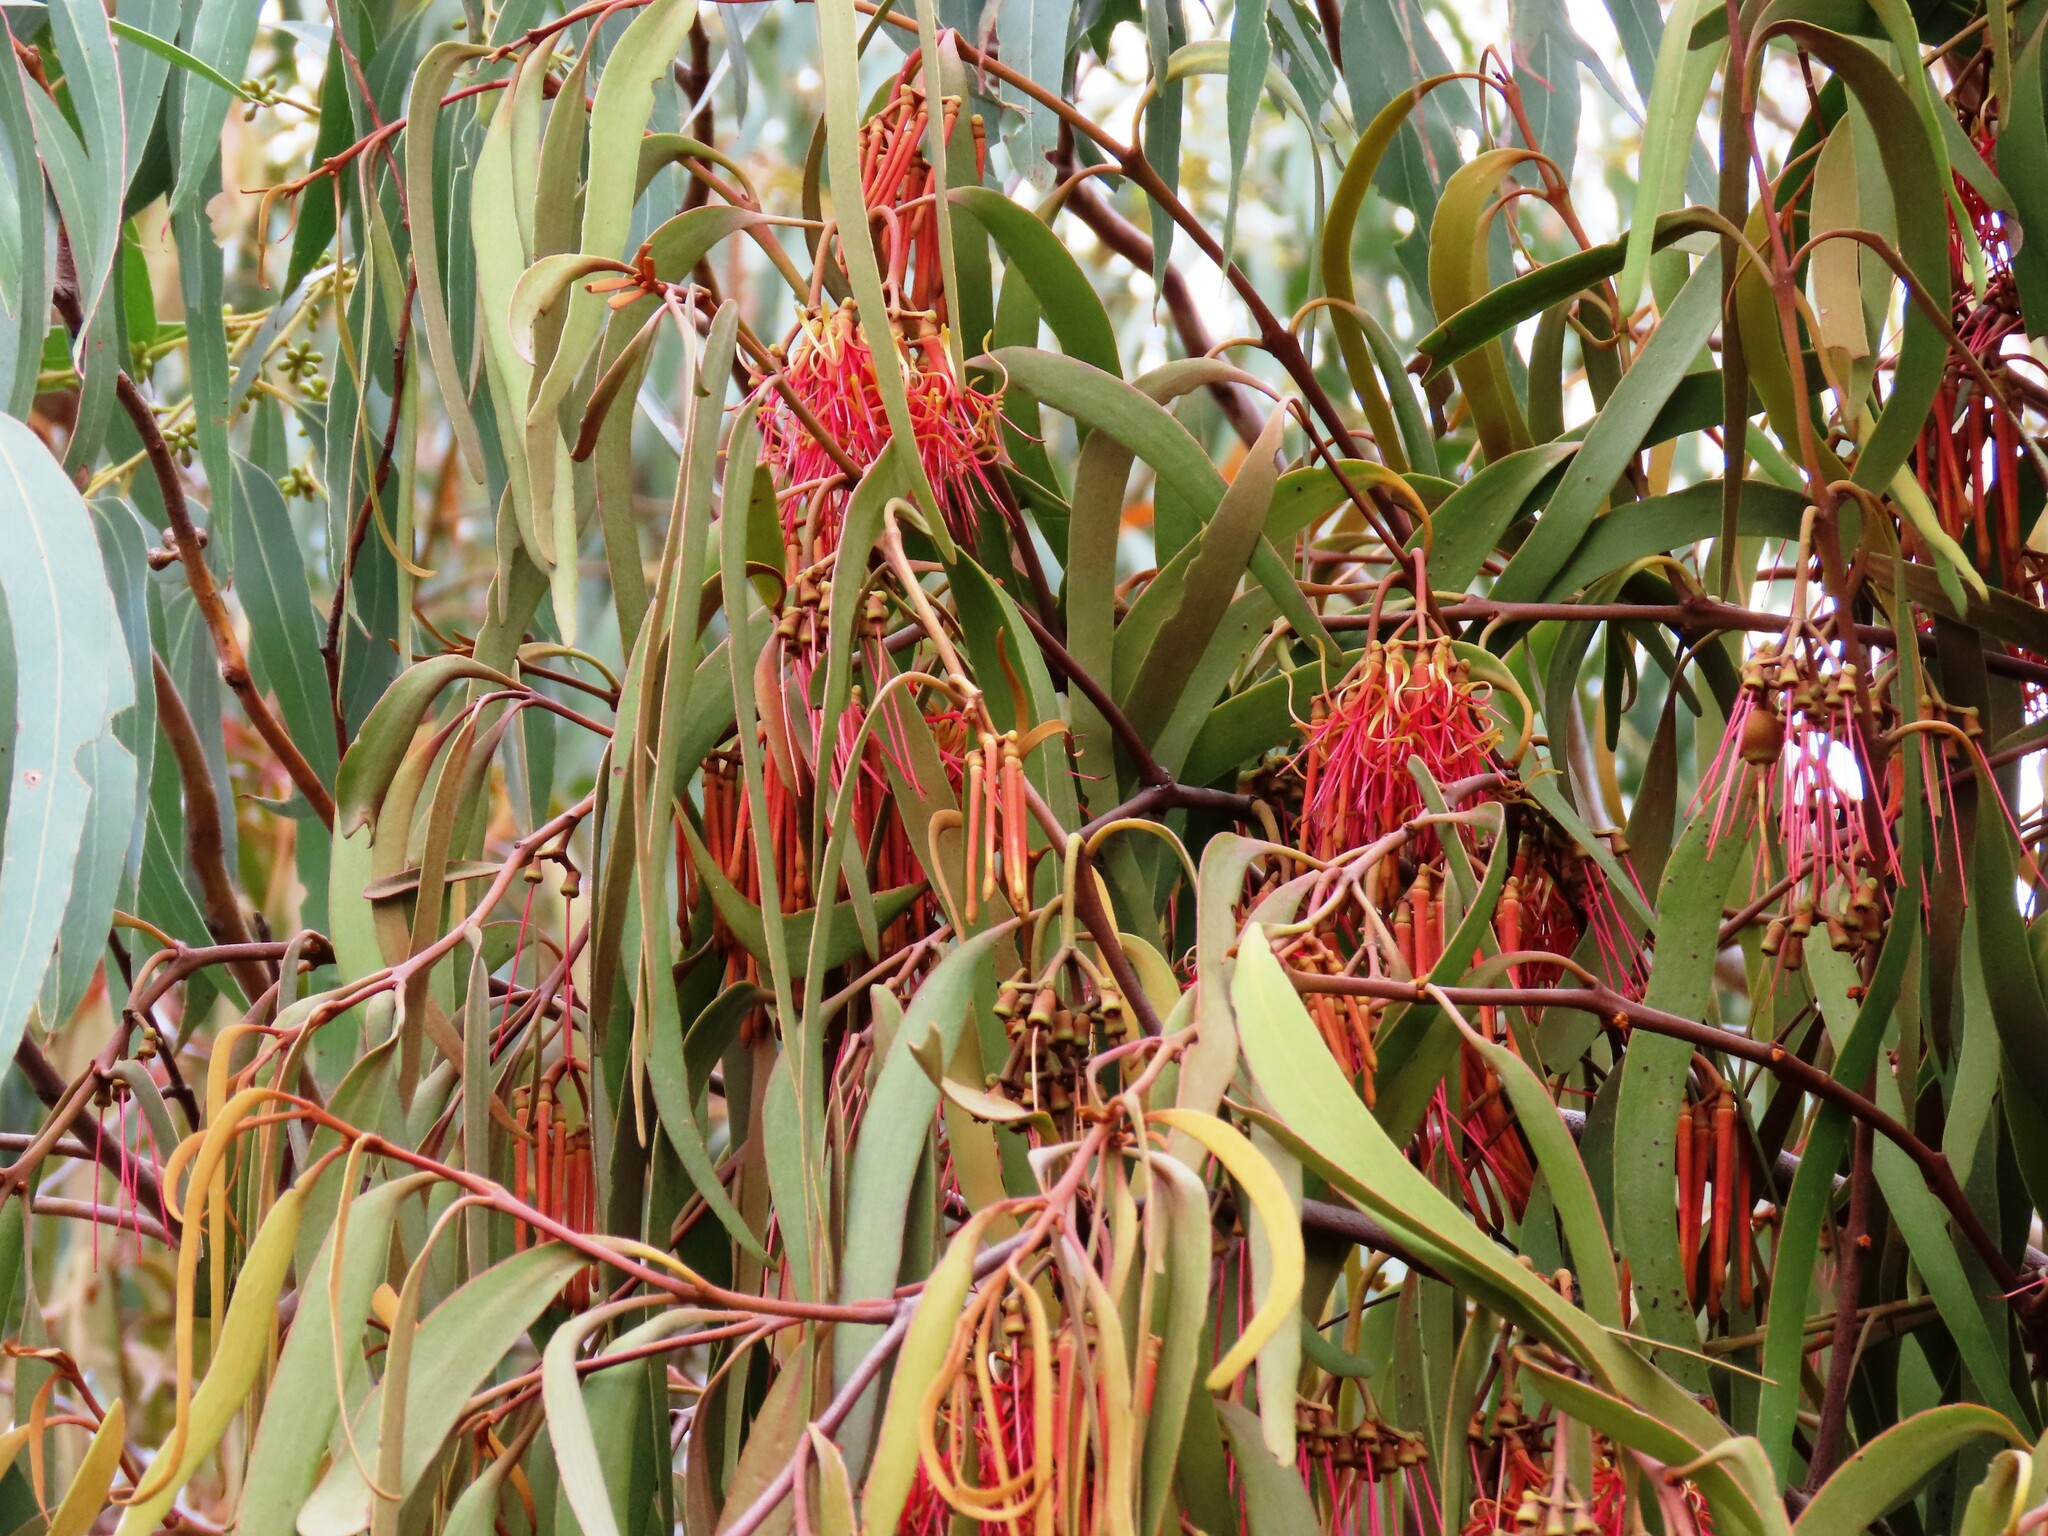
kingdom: Plantae
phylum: Tracheophyta
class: Magnoliopsida
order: Santalales
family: Loranthaceae
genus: Amyema
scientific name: Amyema pendula
